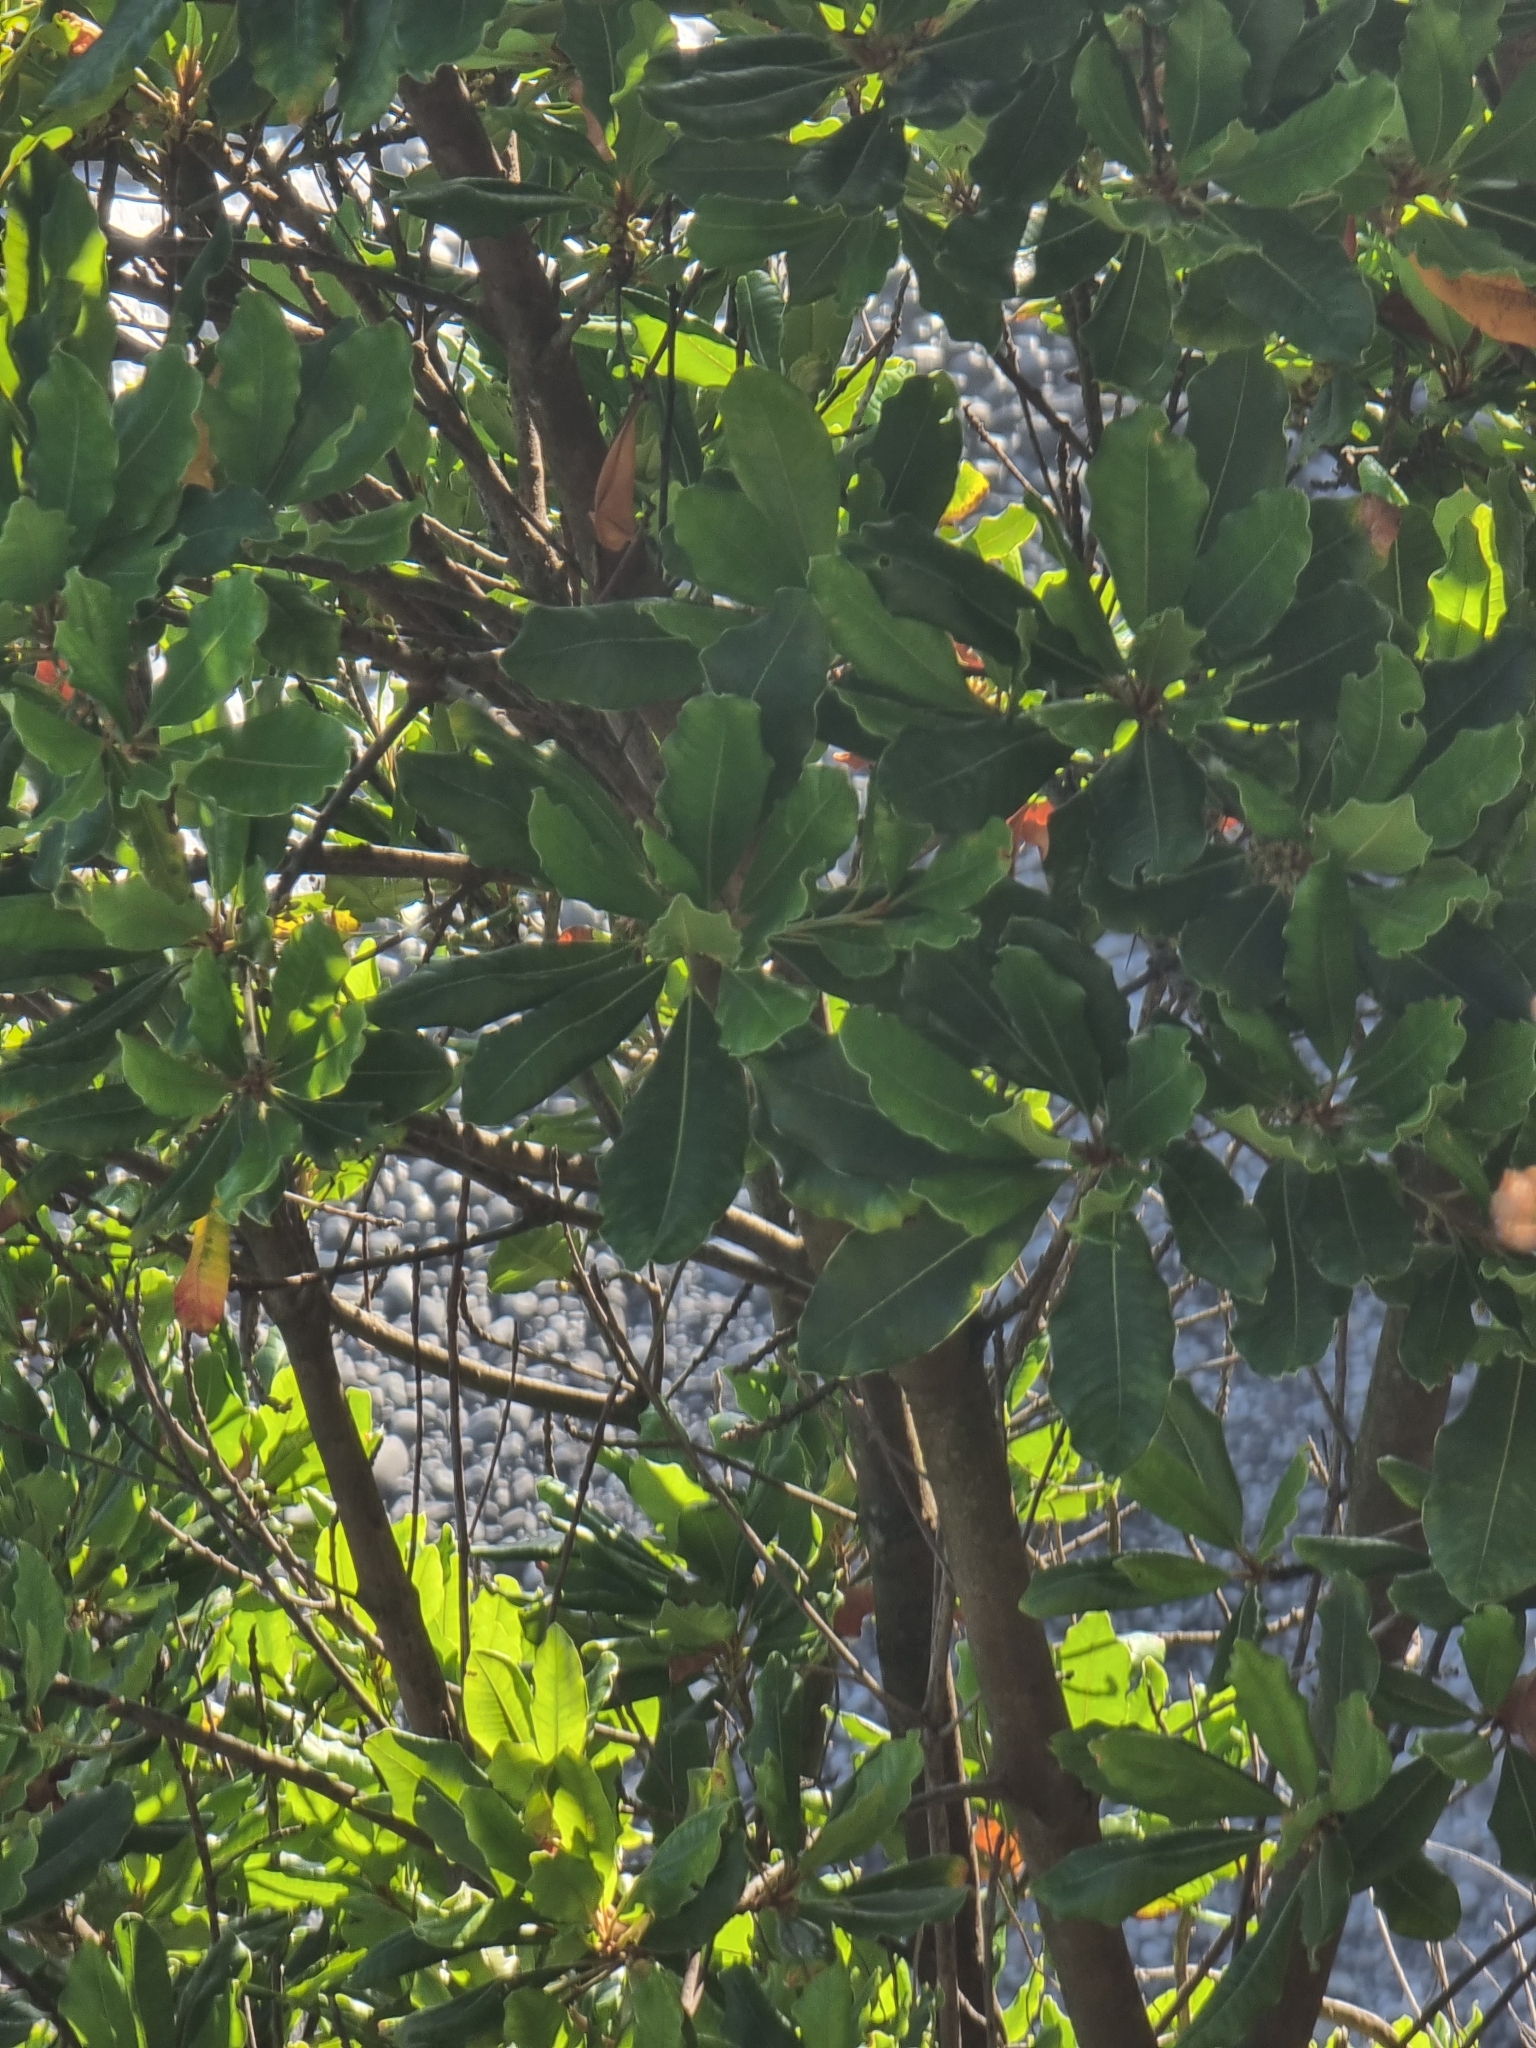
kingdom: Plantae
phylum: Tracheophyta
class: Magnoliopsida
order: Ericales
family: Sapotaceae
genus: Sideroxylon
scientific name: Sideroxylon mirmulans
